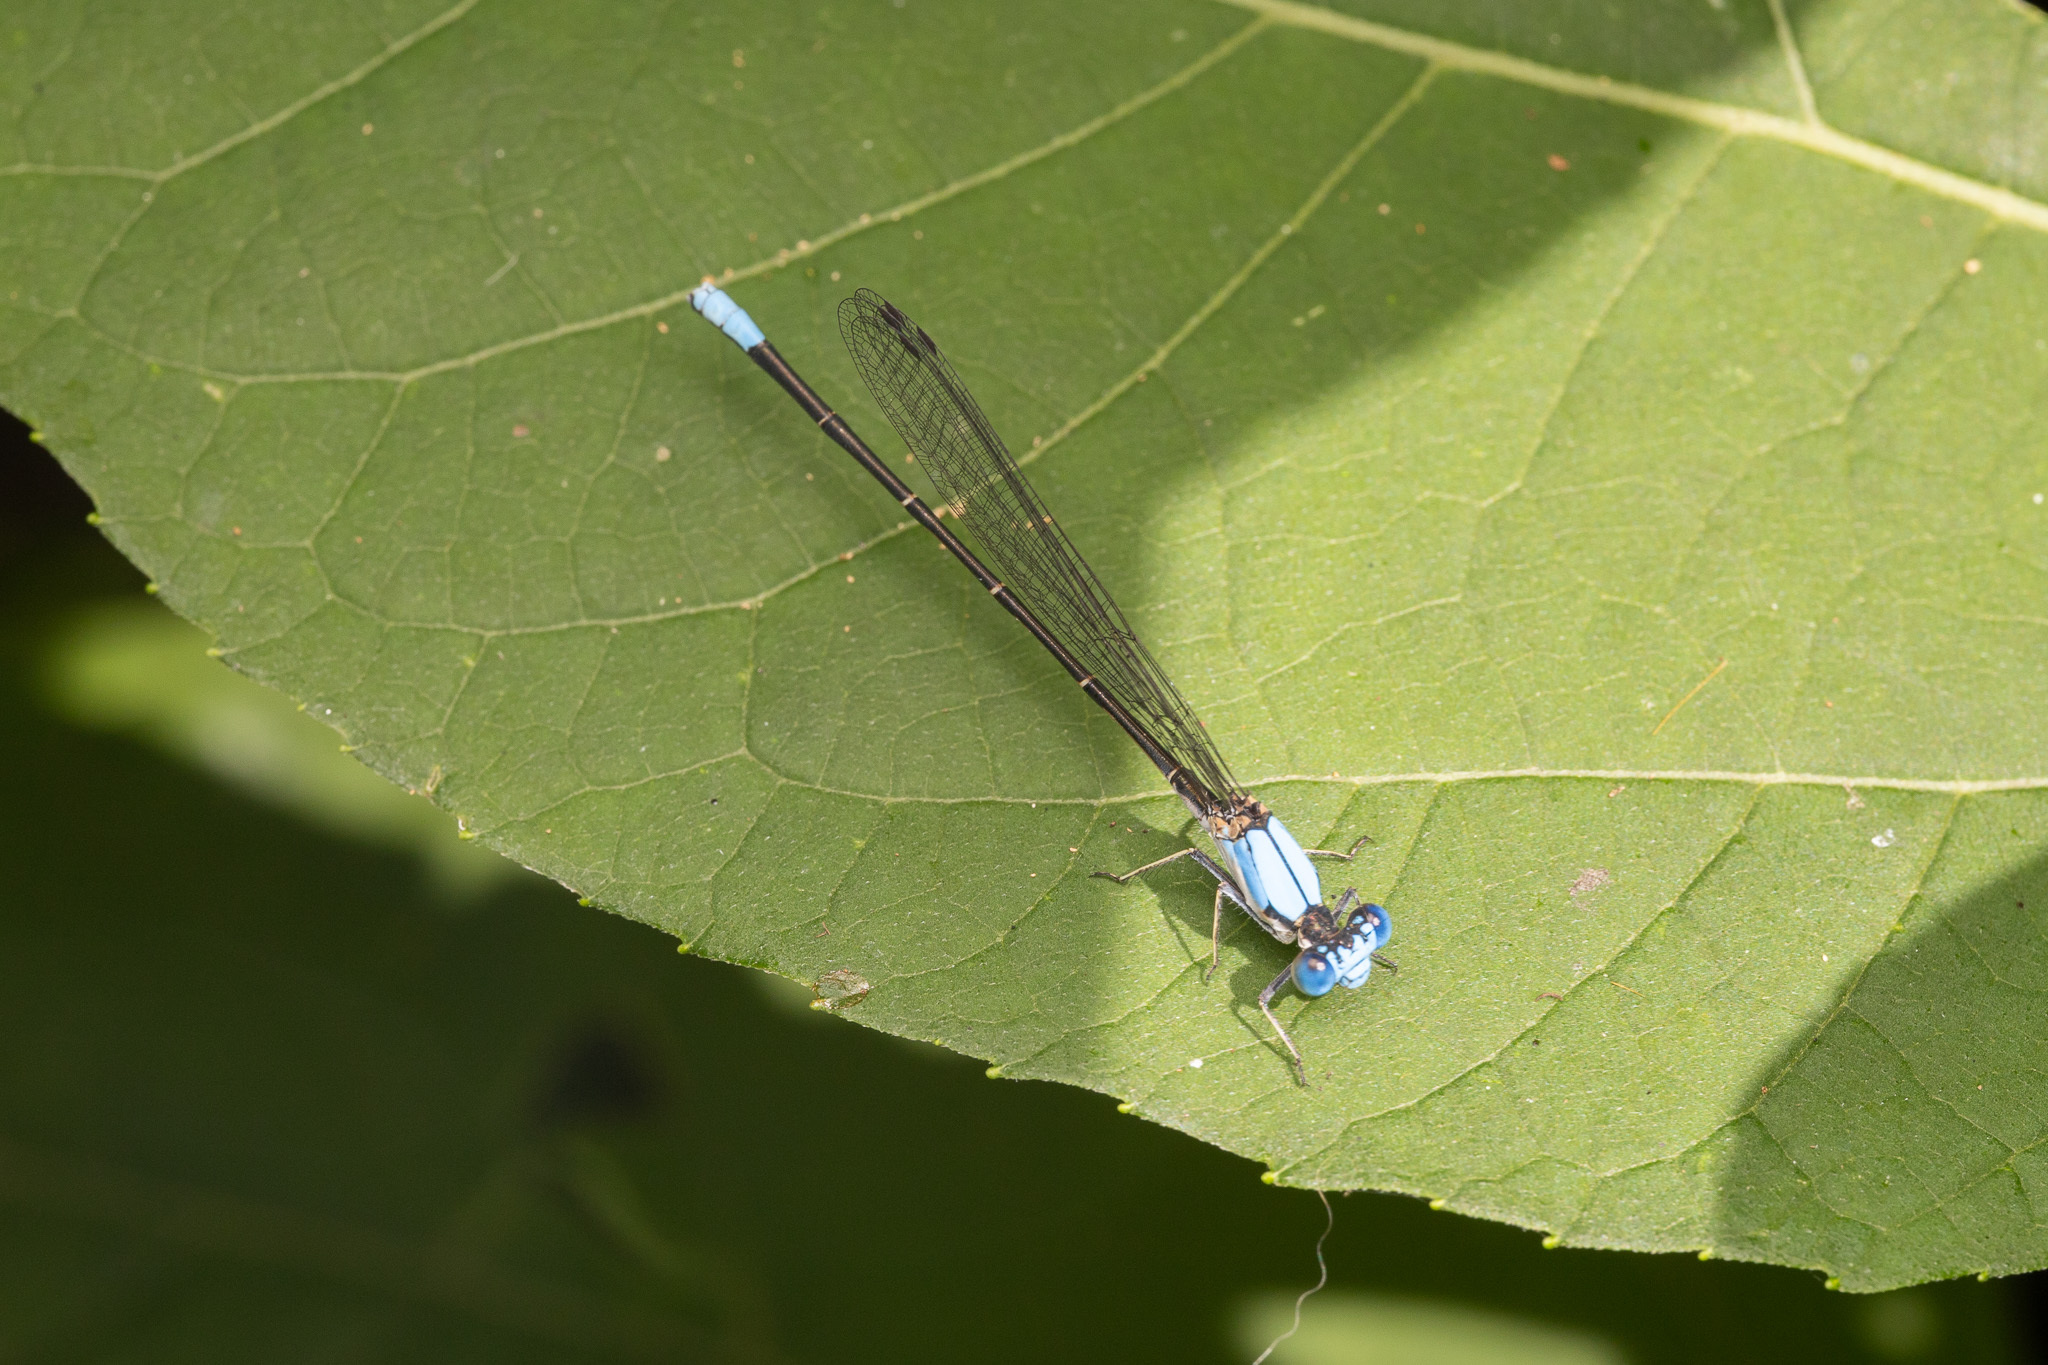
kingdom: Animalia
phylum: Arthropoda
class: Insecta
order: Odonata
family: Coenagrionidae
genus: Argia
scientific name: Argia apicalis
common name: Blue-fronted dancer
